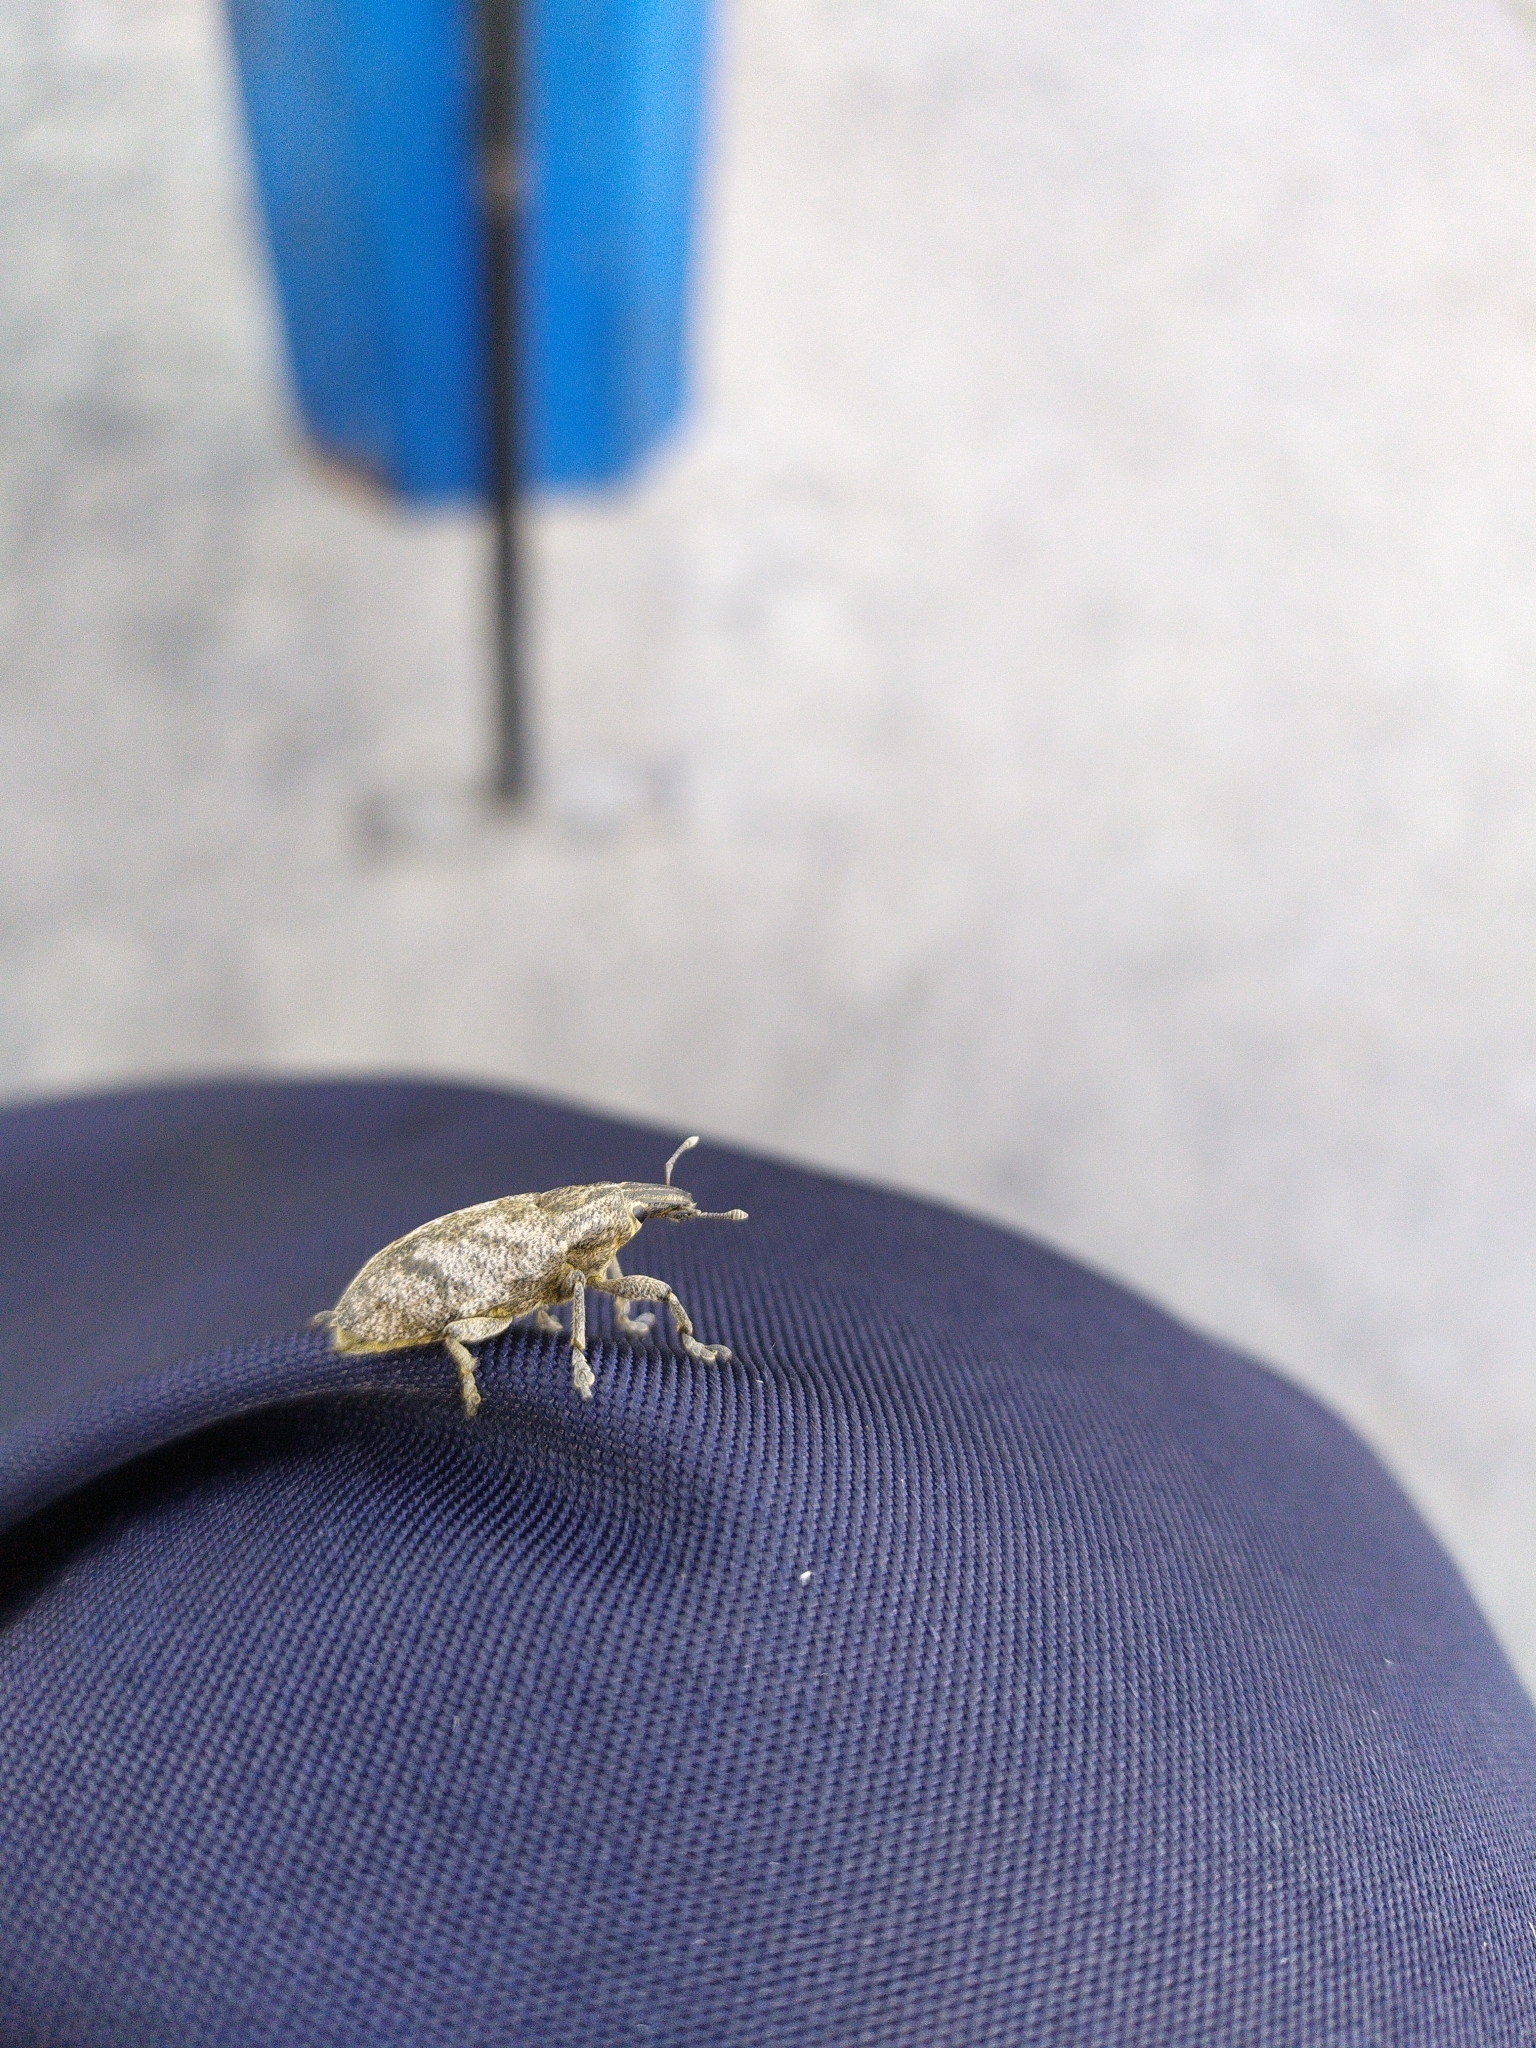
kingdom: Animalia
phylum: Arthropoda
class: Insecta
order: Coleoptera
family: Curculionidae
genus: Cleonis
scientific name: Cleonis pigra
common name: Large thistle weevil
